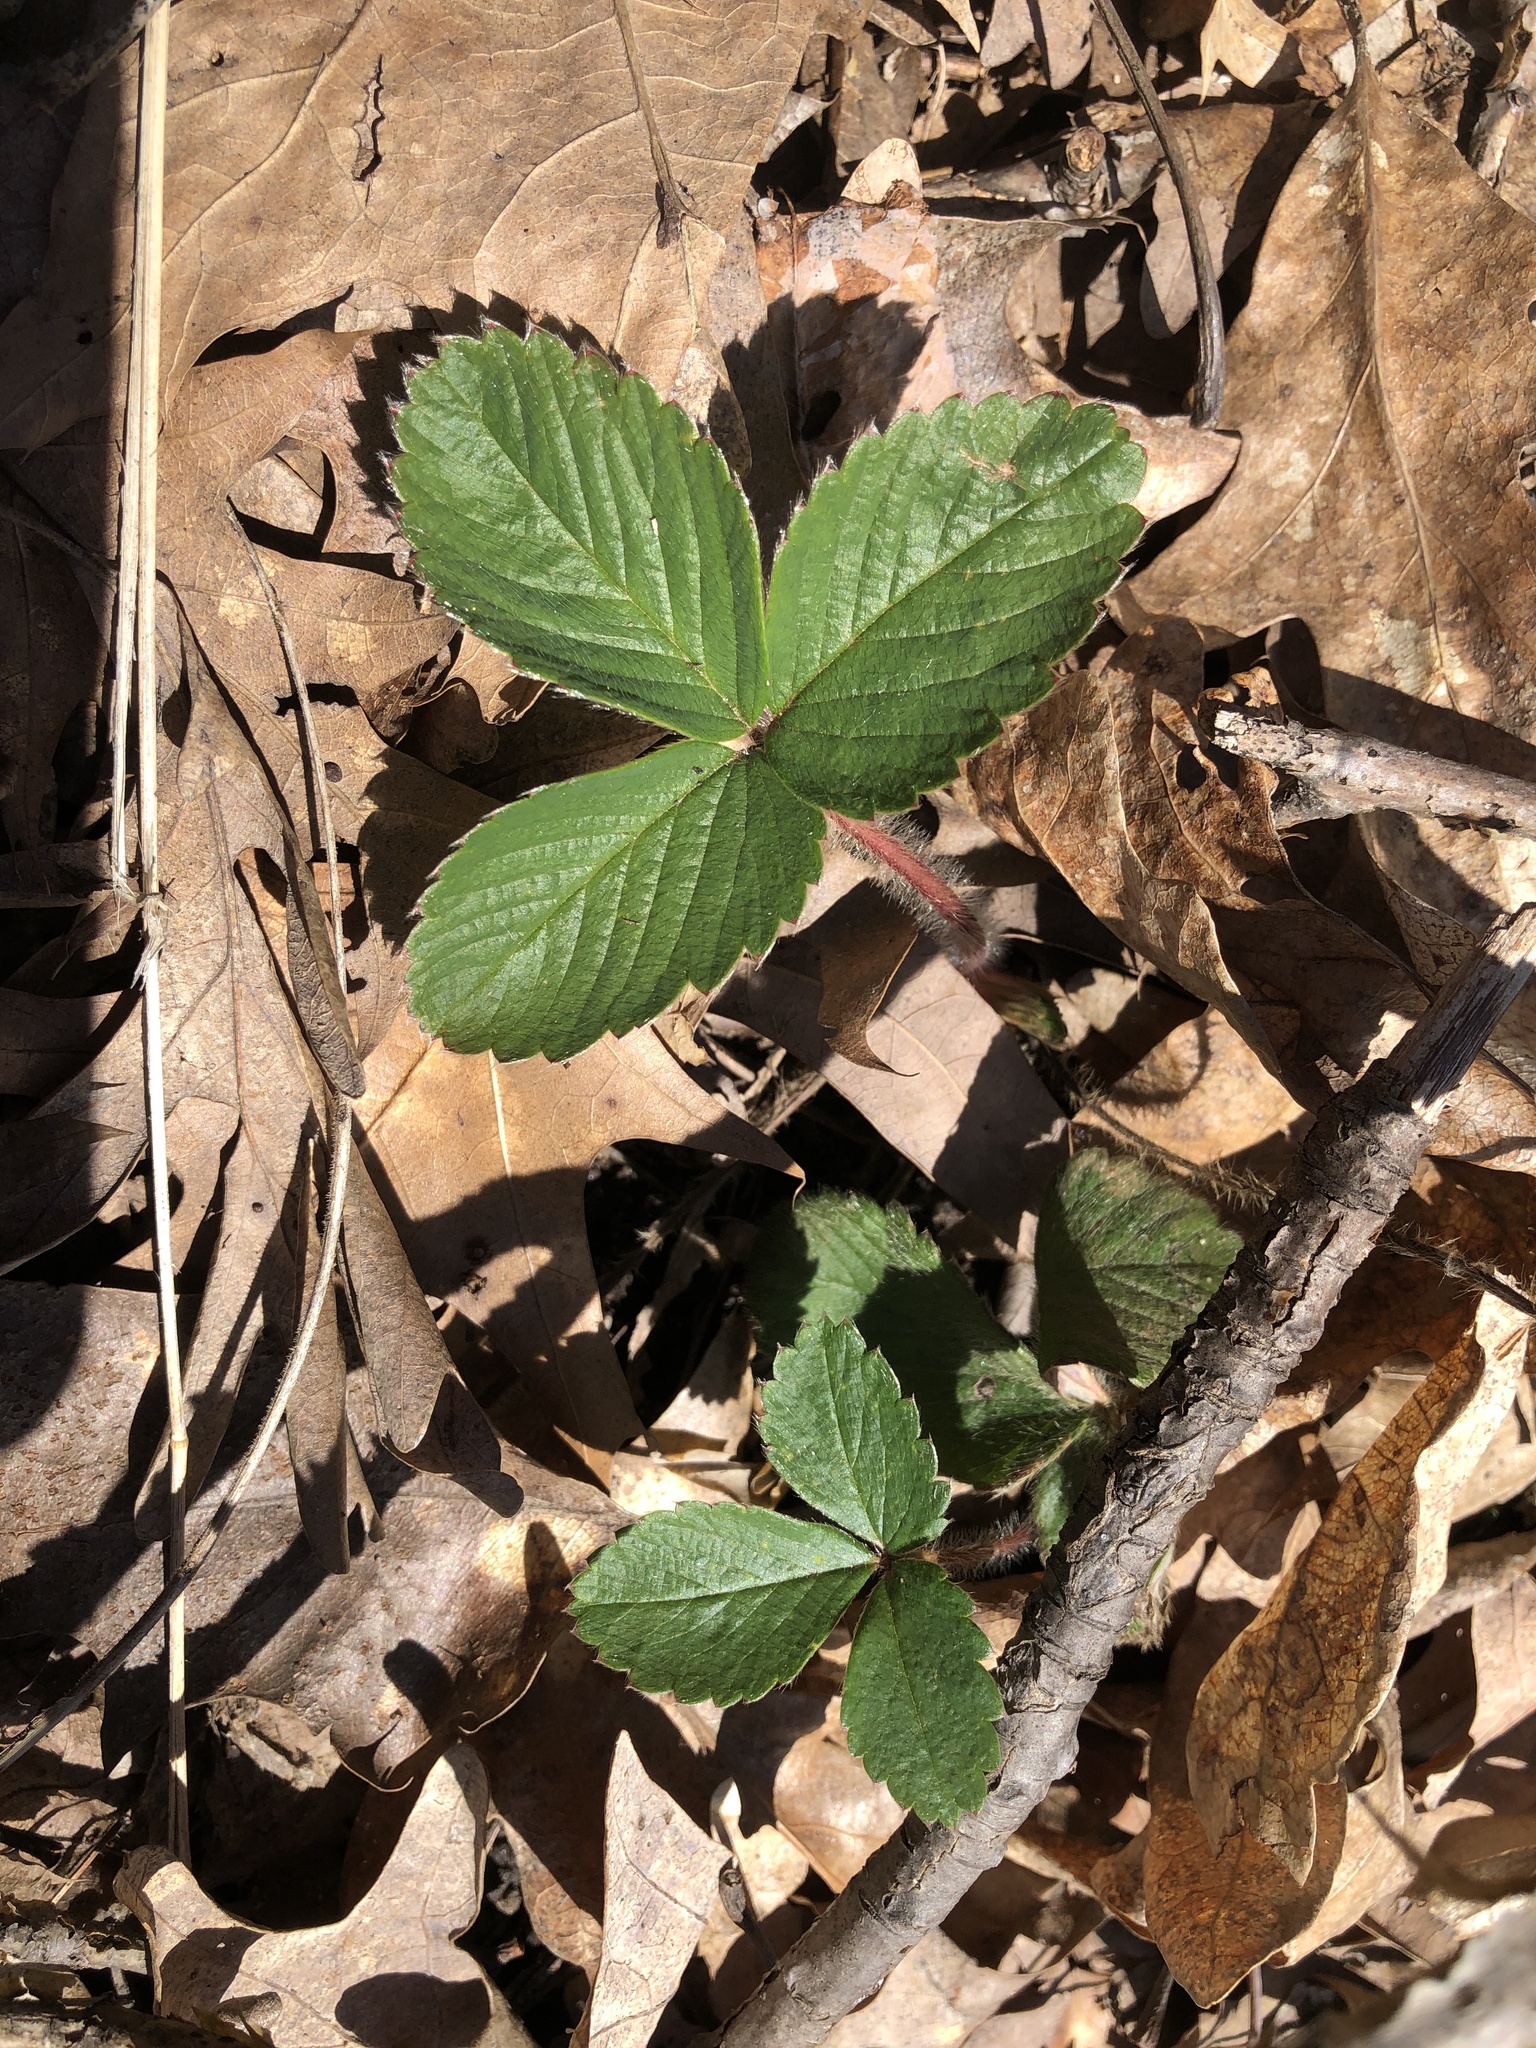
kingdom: Plantae
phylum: Tracheophyta
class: Magnoliopsida
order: Rosales
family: Rosaceae
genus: Fragaria
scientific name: Fragaria vesca
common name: Wild strawberry
